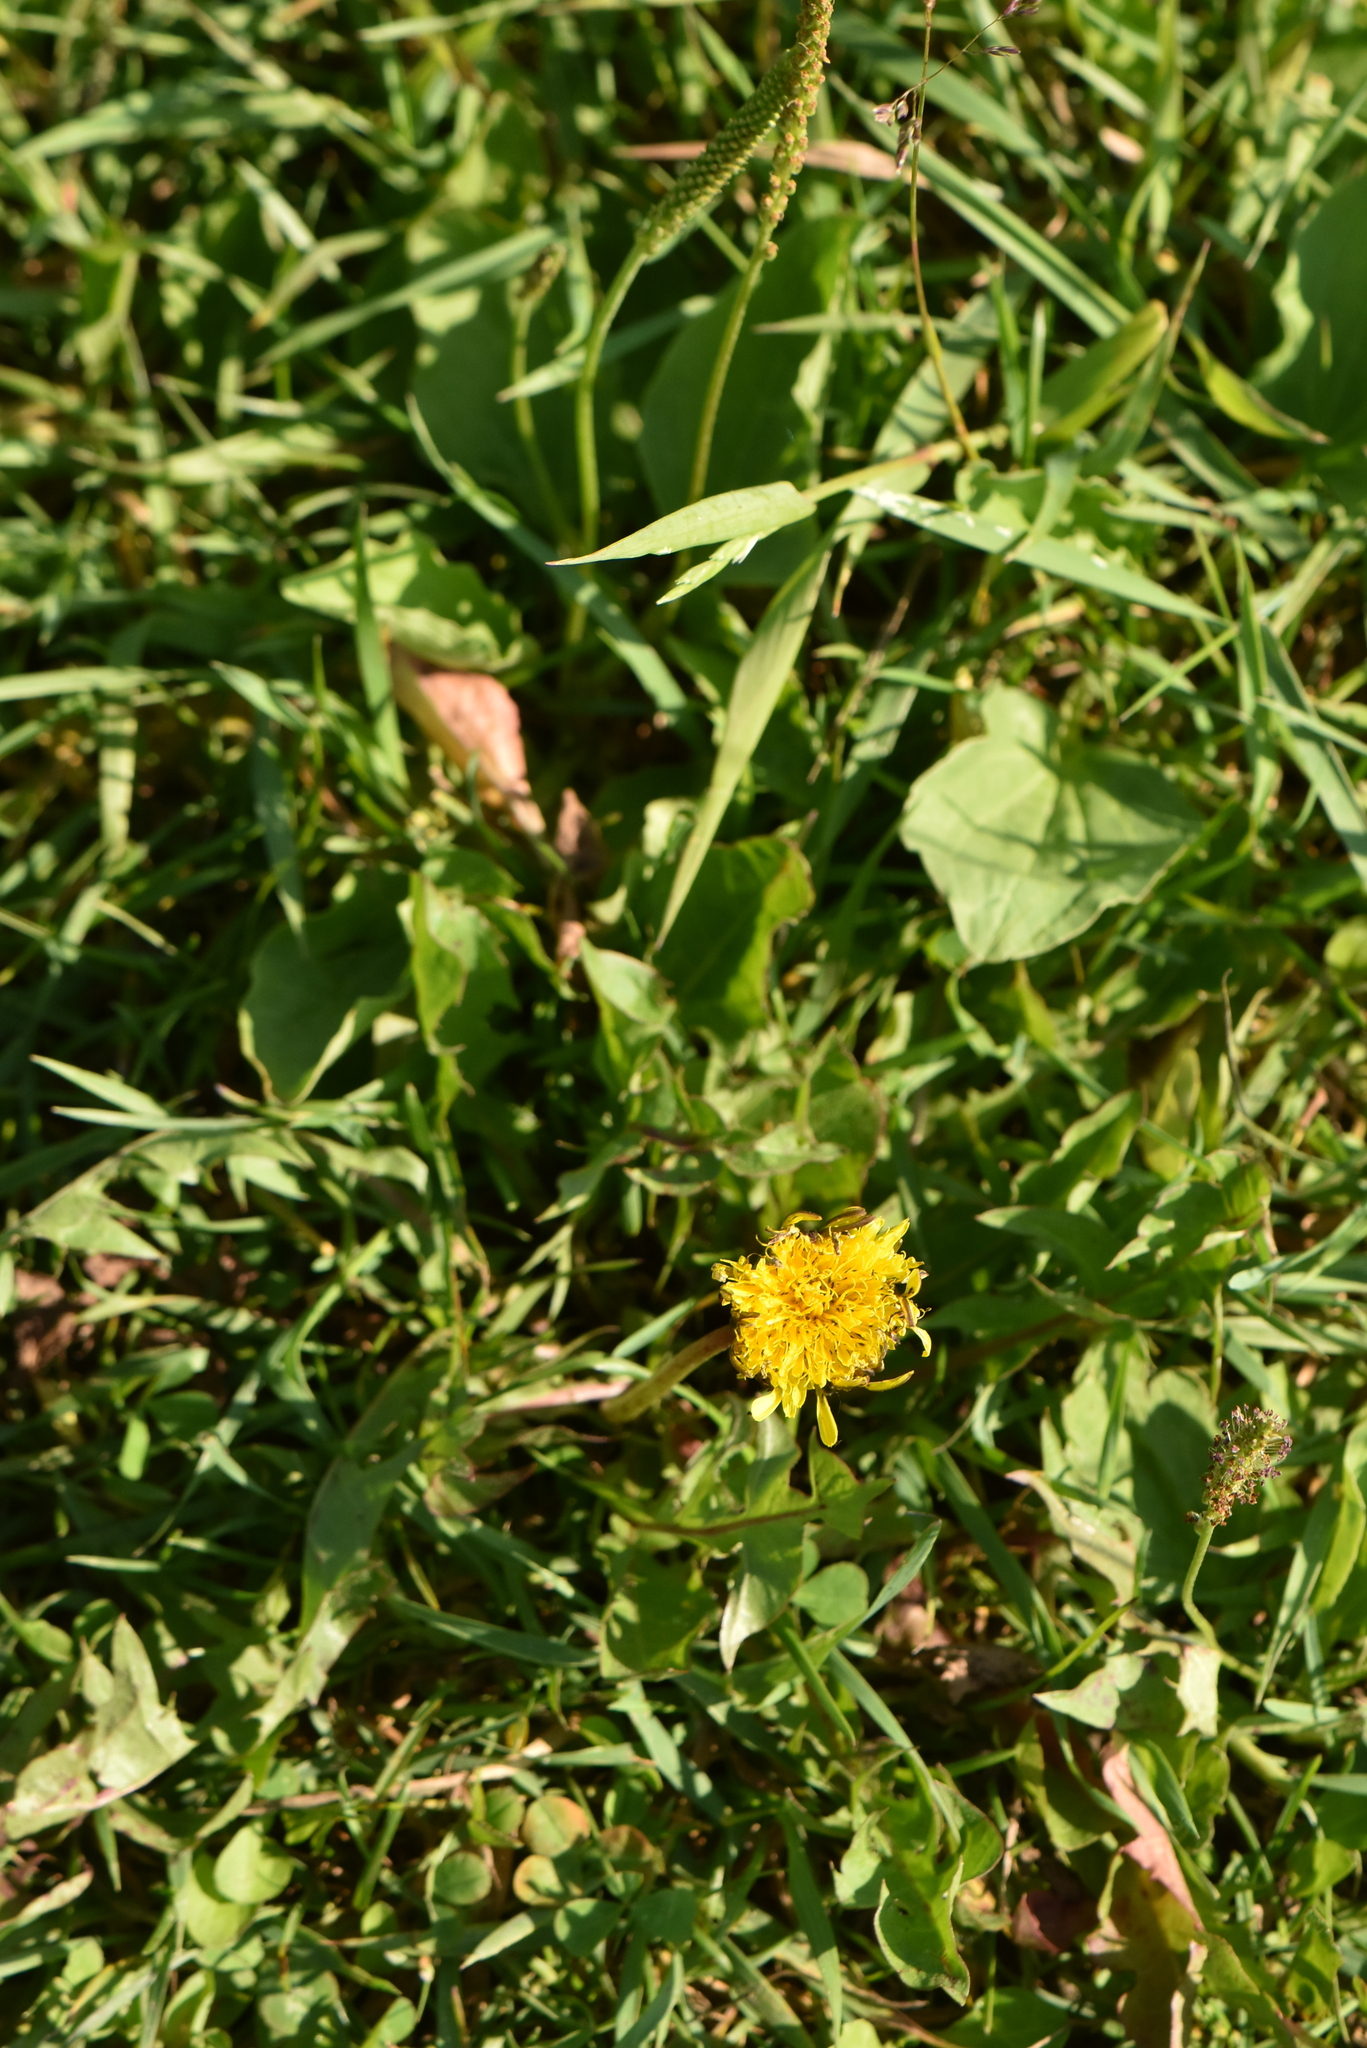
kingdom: Plantae
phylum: Tracheophyta
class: Magnoliopsida
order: Asterales
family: Asteraceae
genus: Taraxacum
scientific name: Taraxacum officinale
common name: Common dandelion
